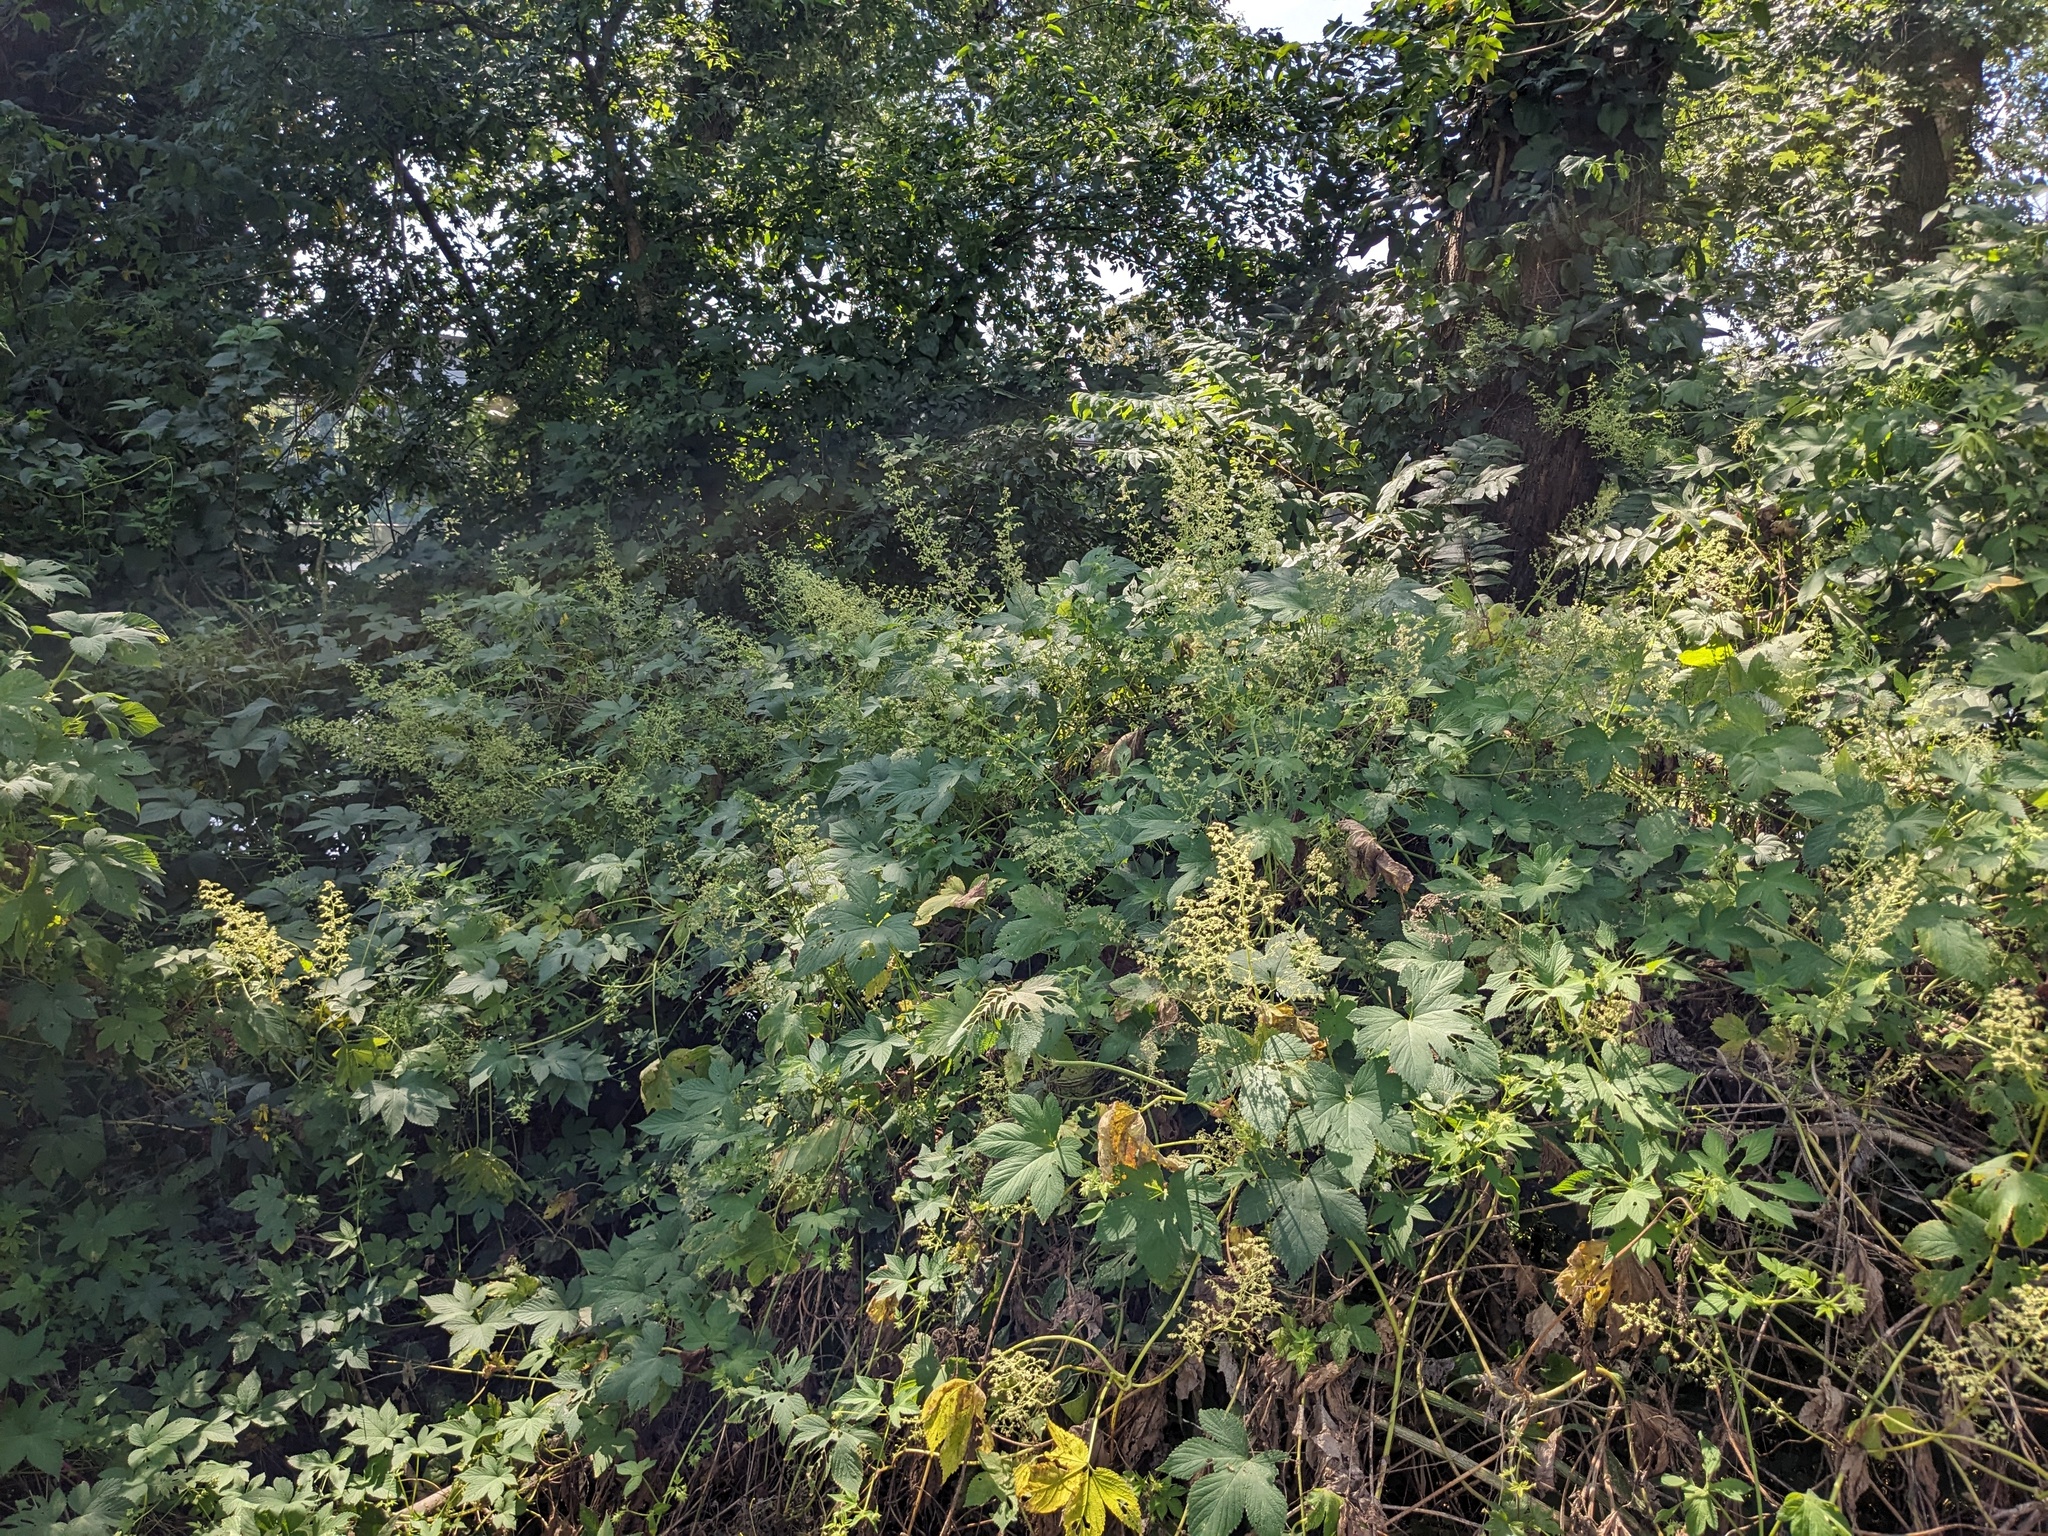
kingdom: Plantae
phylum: Tracheophyta
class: Magnoliopsida
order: Rosales
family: Cannabaceae
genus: Humulus
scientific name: Humulus scandens
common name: Japanese hop
